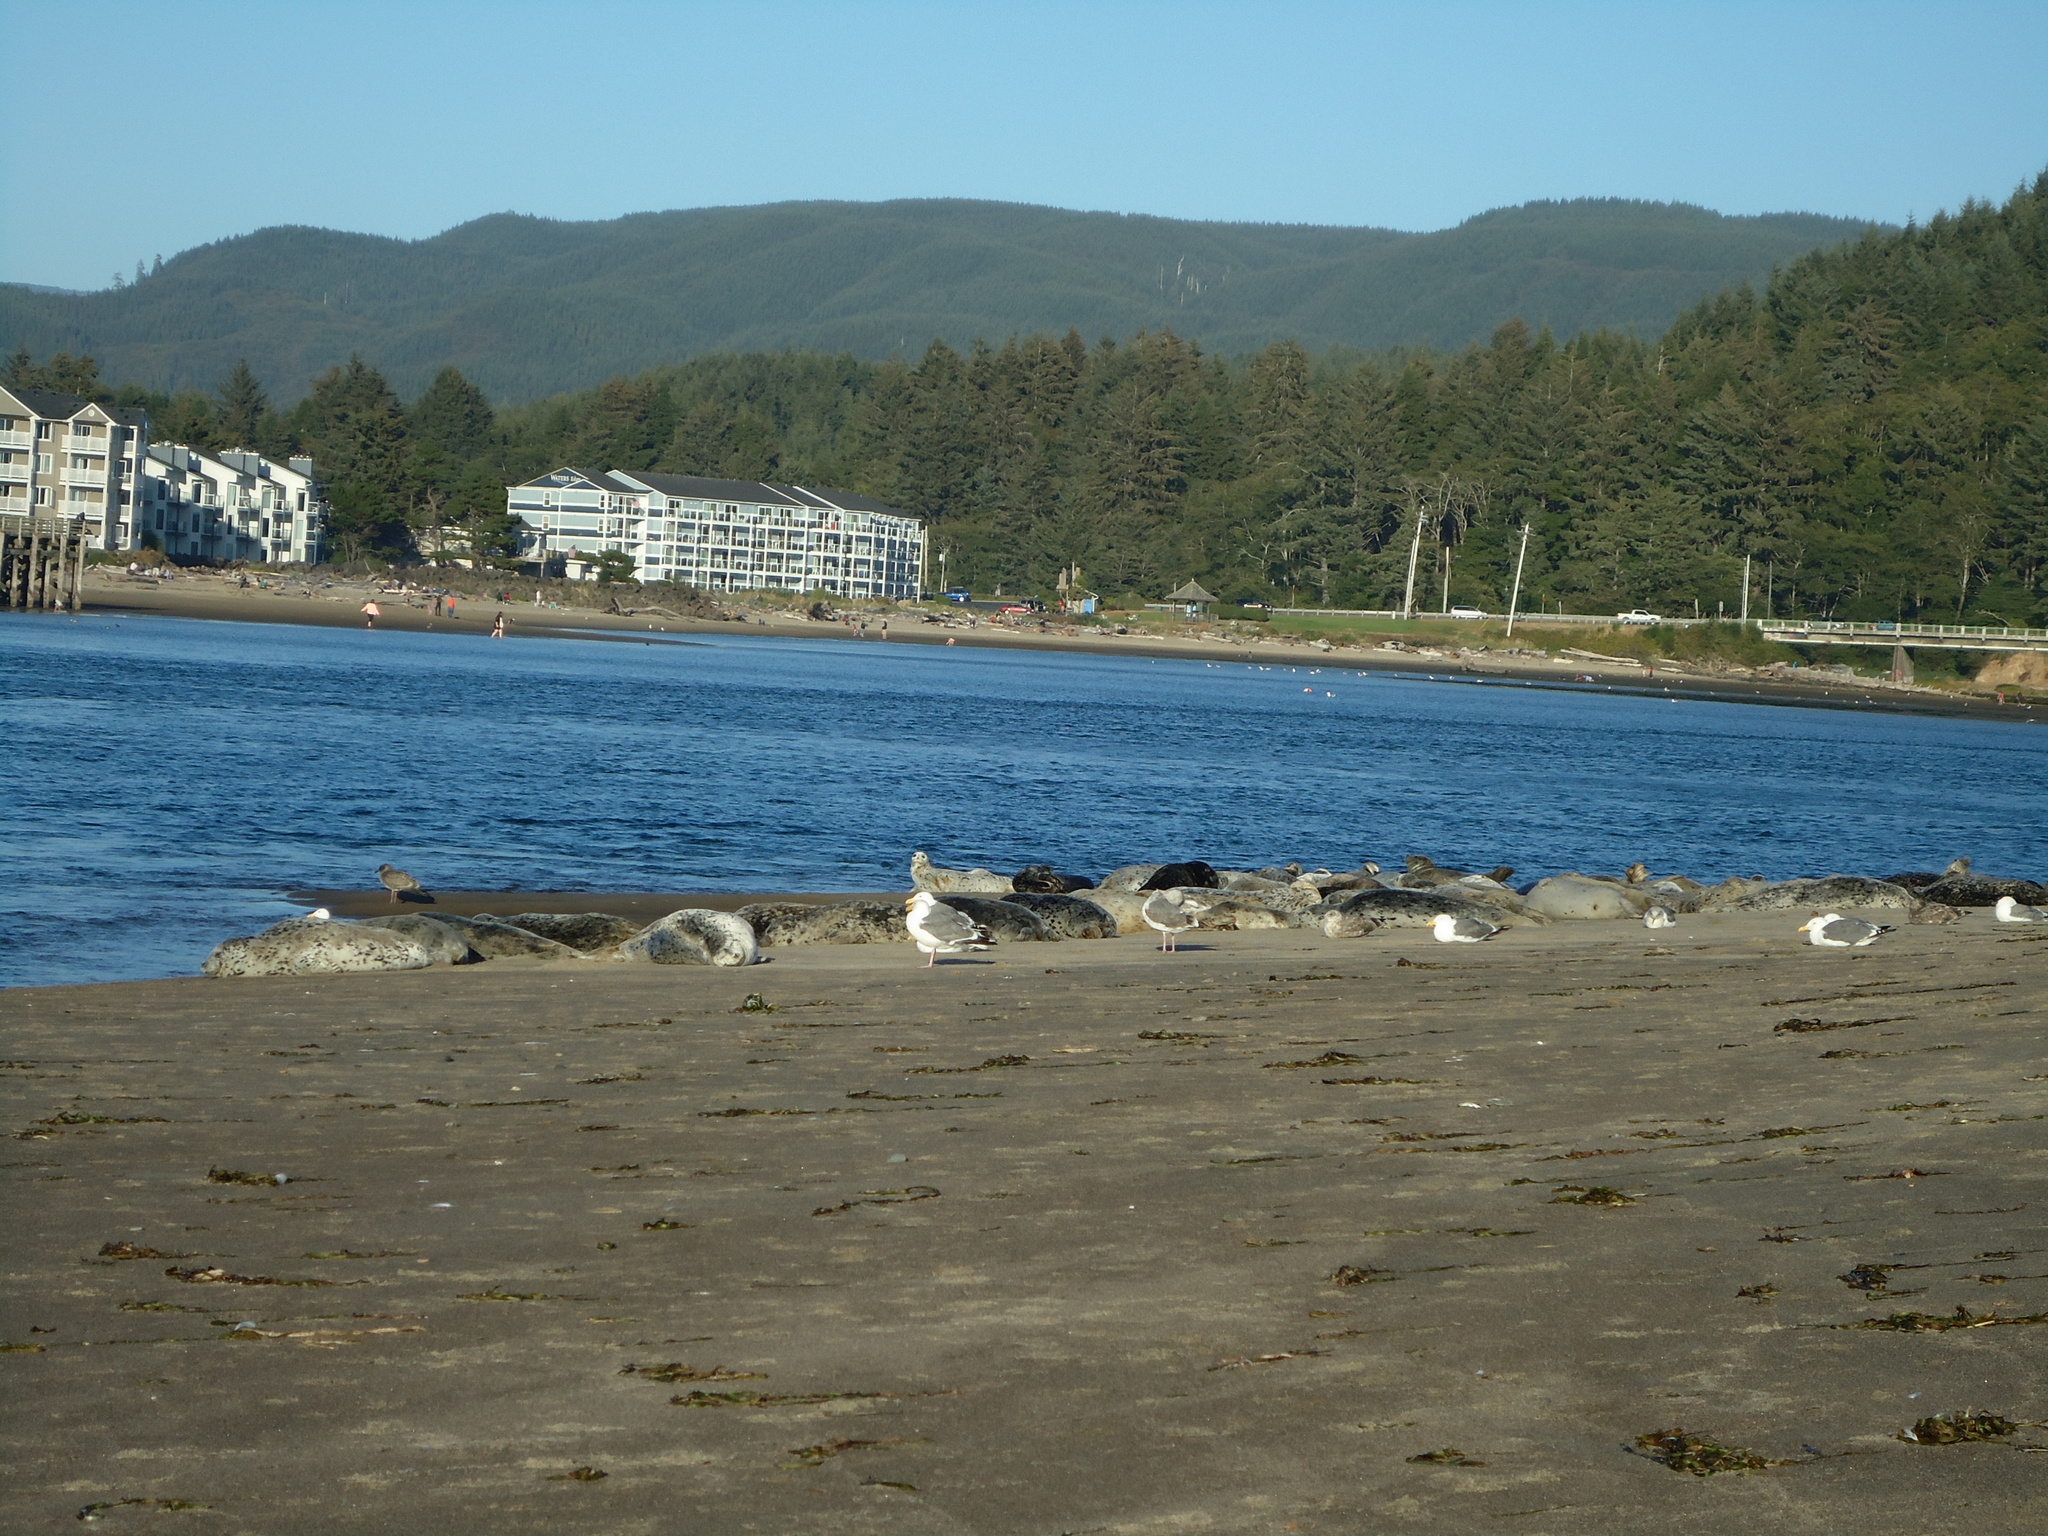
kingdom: Animalia
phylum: Chordata
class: Mammalia
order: Carnivora
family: Phocidae
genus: Phoca
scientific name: Phoca vitulina
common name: Harbor seal
